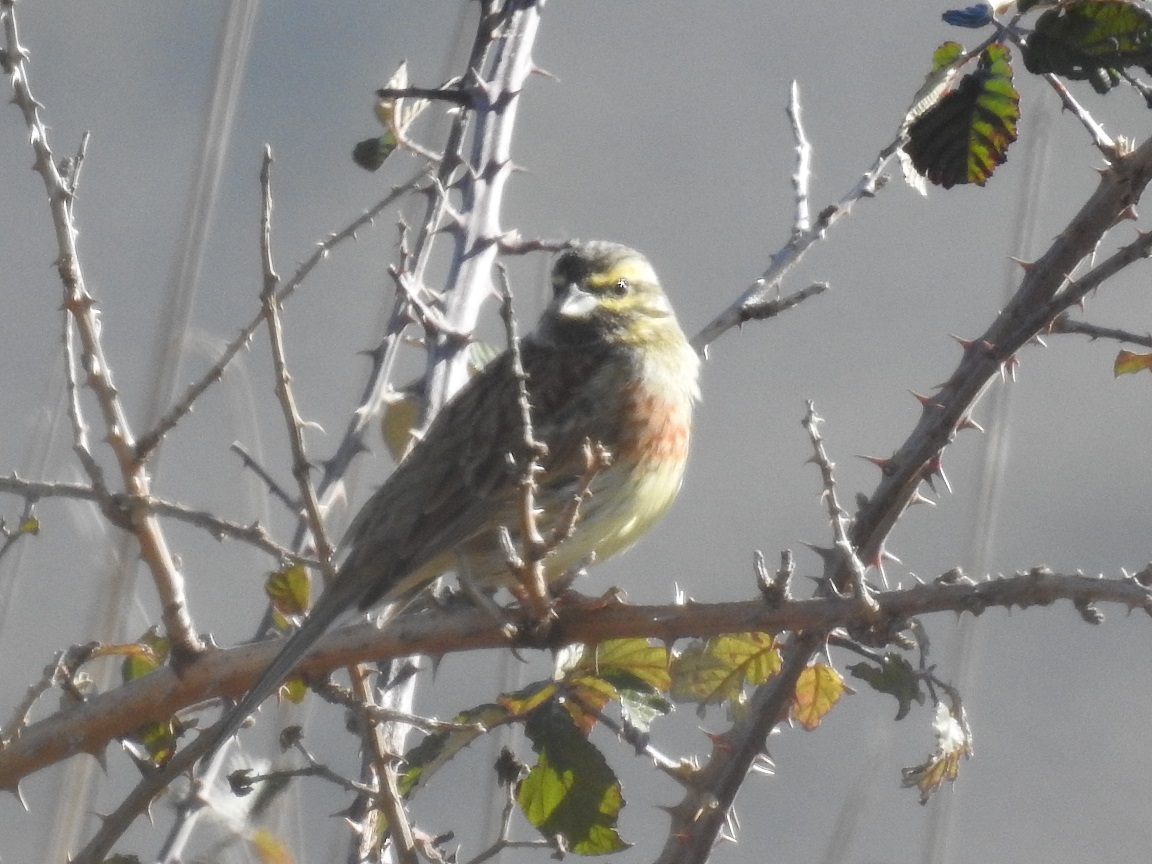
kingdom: Animalia
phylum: Chordata
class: Aves
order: Passeriformes
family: Emberizidae
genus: Emberiza
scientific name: Emberiza cirlus
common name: Cirl bunting
